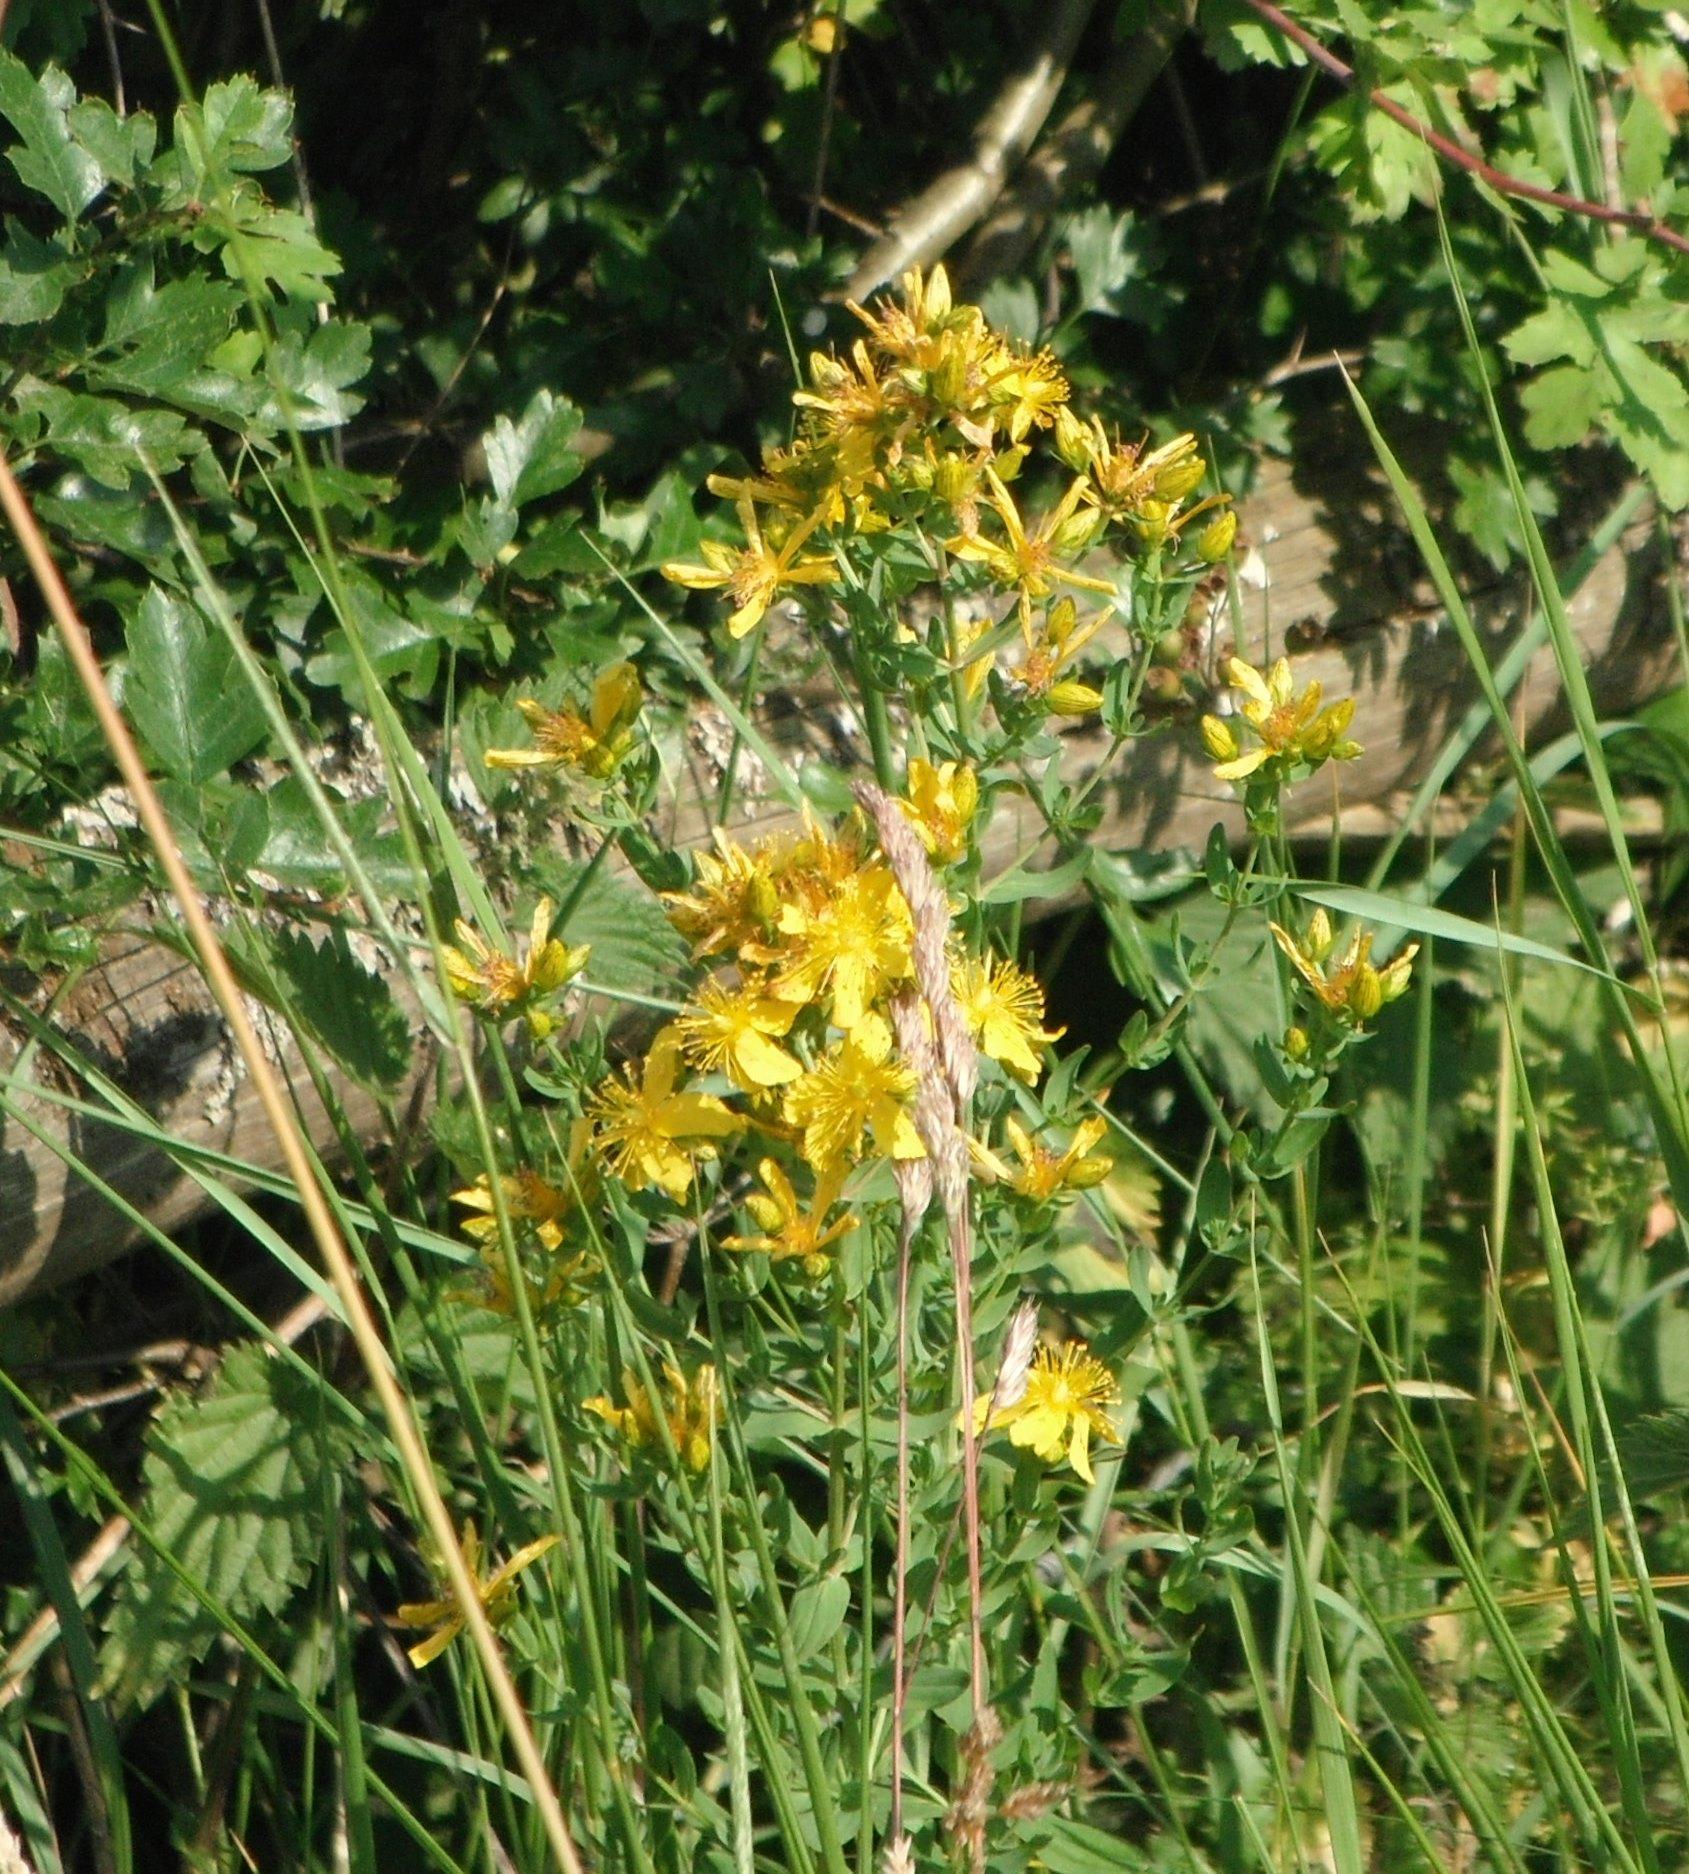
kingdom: Plantae
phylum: Tracheophyta
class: Magnoliopsida
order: Malpighiales
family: Hypericaceae
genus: Hypericum
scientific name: Hypericum
